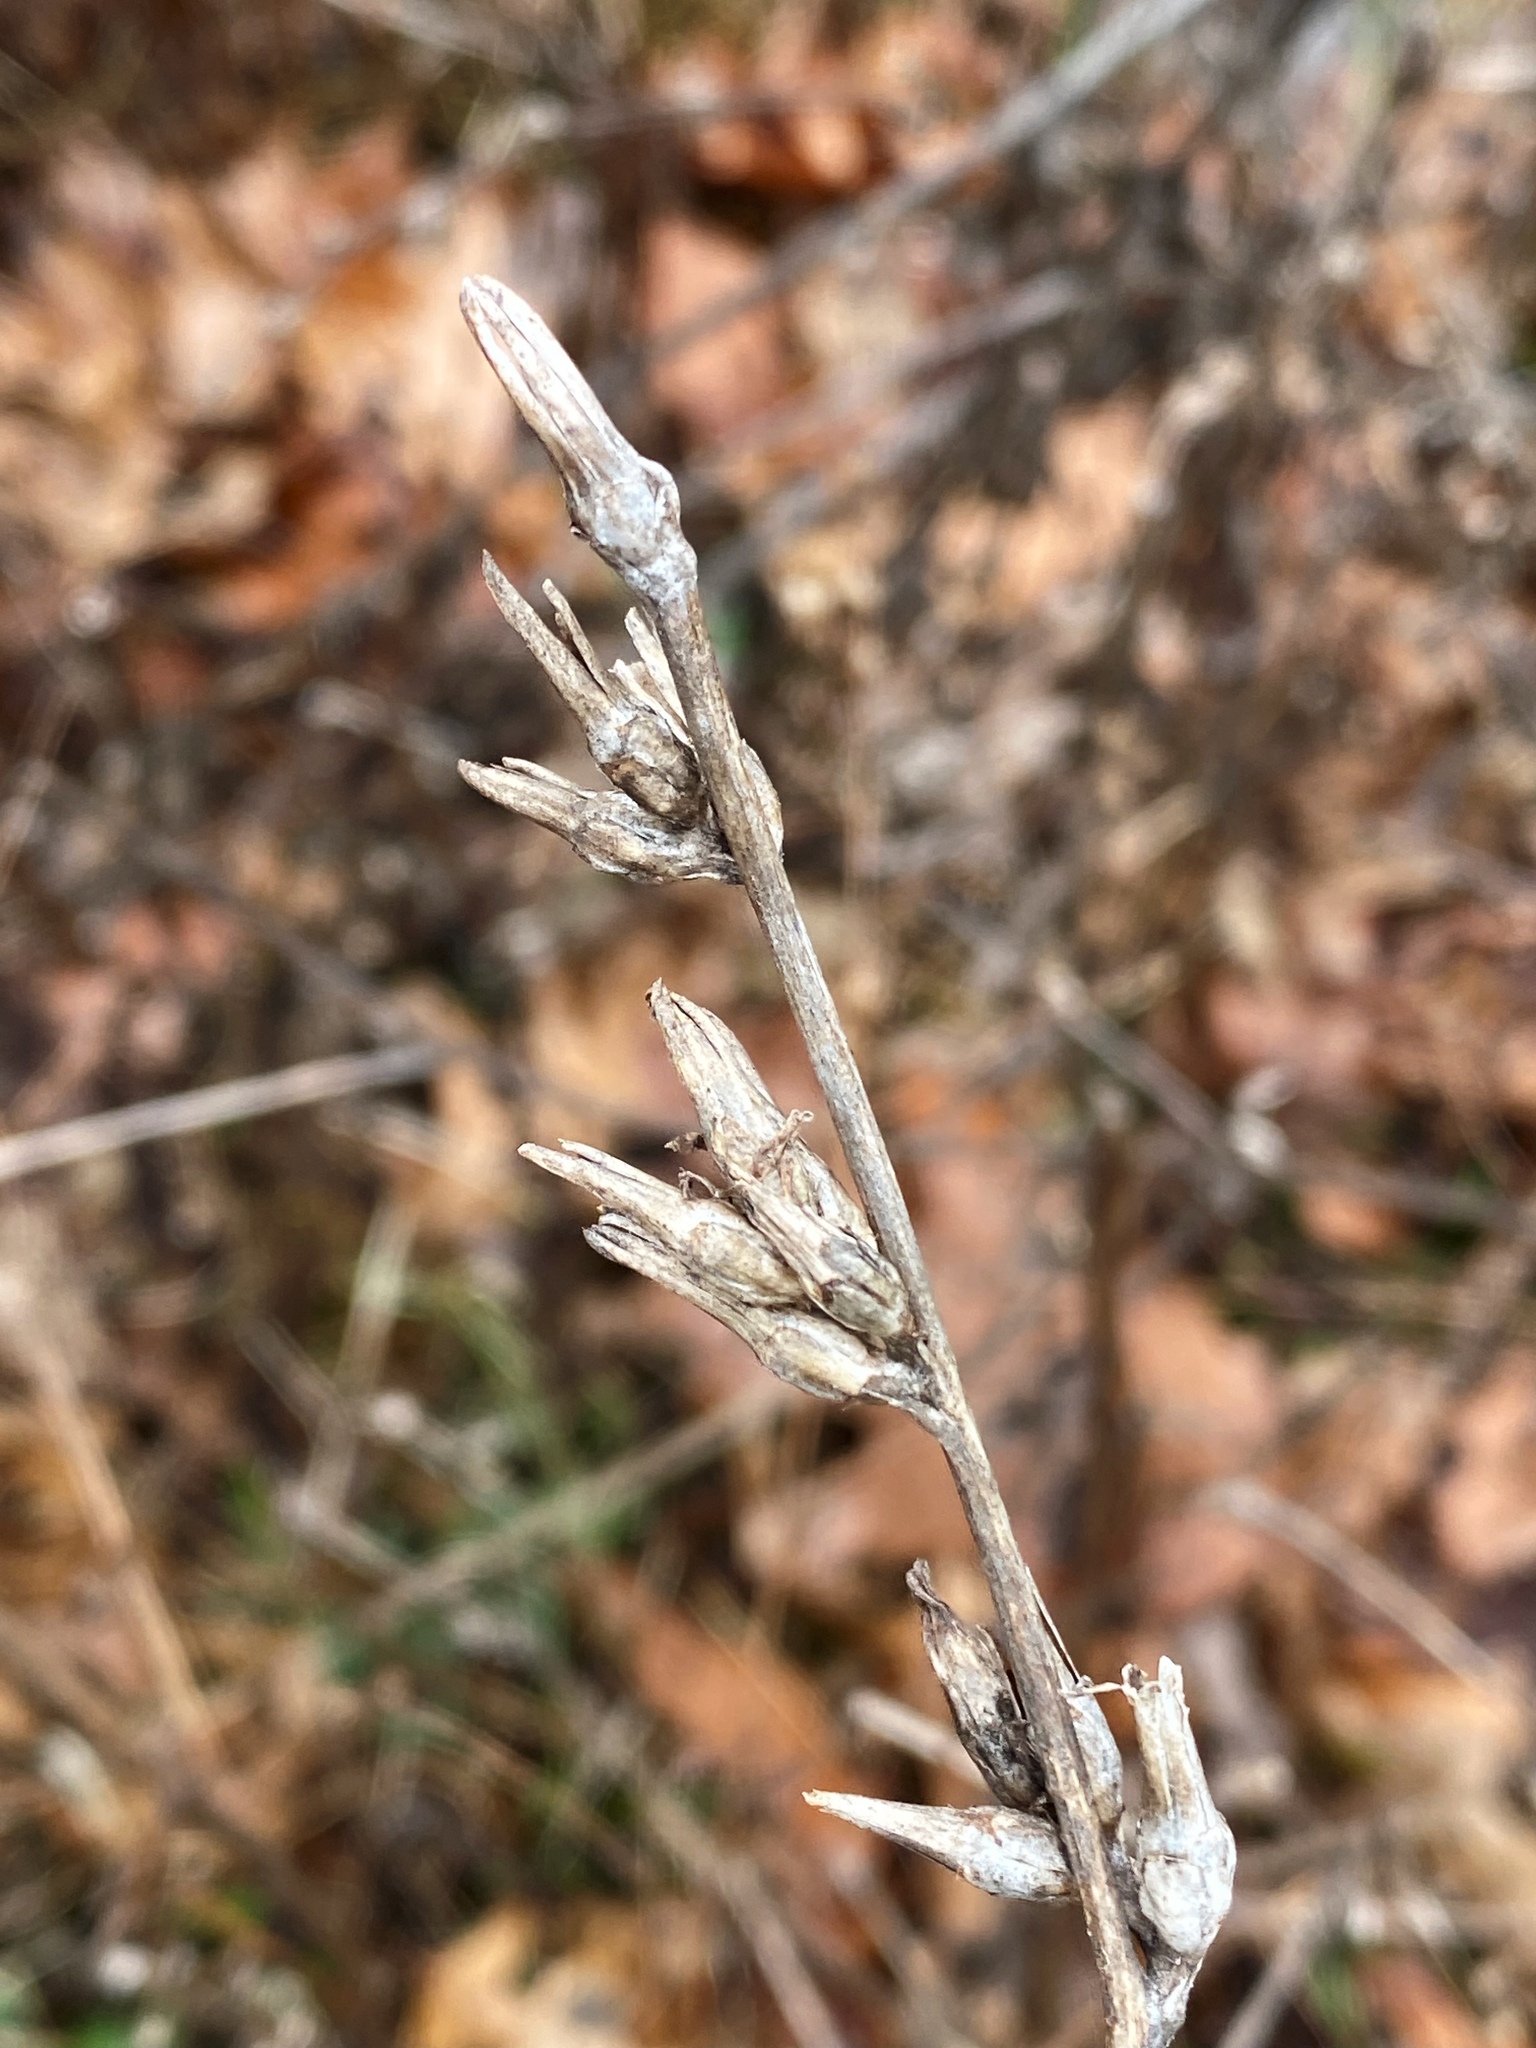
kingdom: Plantae
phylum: Tracheophyta
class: Magnoliopsida
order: Asterales
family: Asteraceae
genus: Cichorium
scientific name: Cichorium intybus
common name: Chicory
